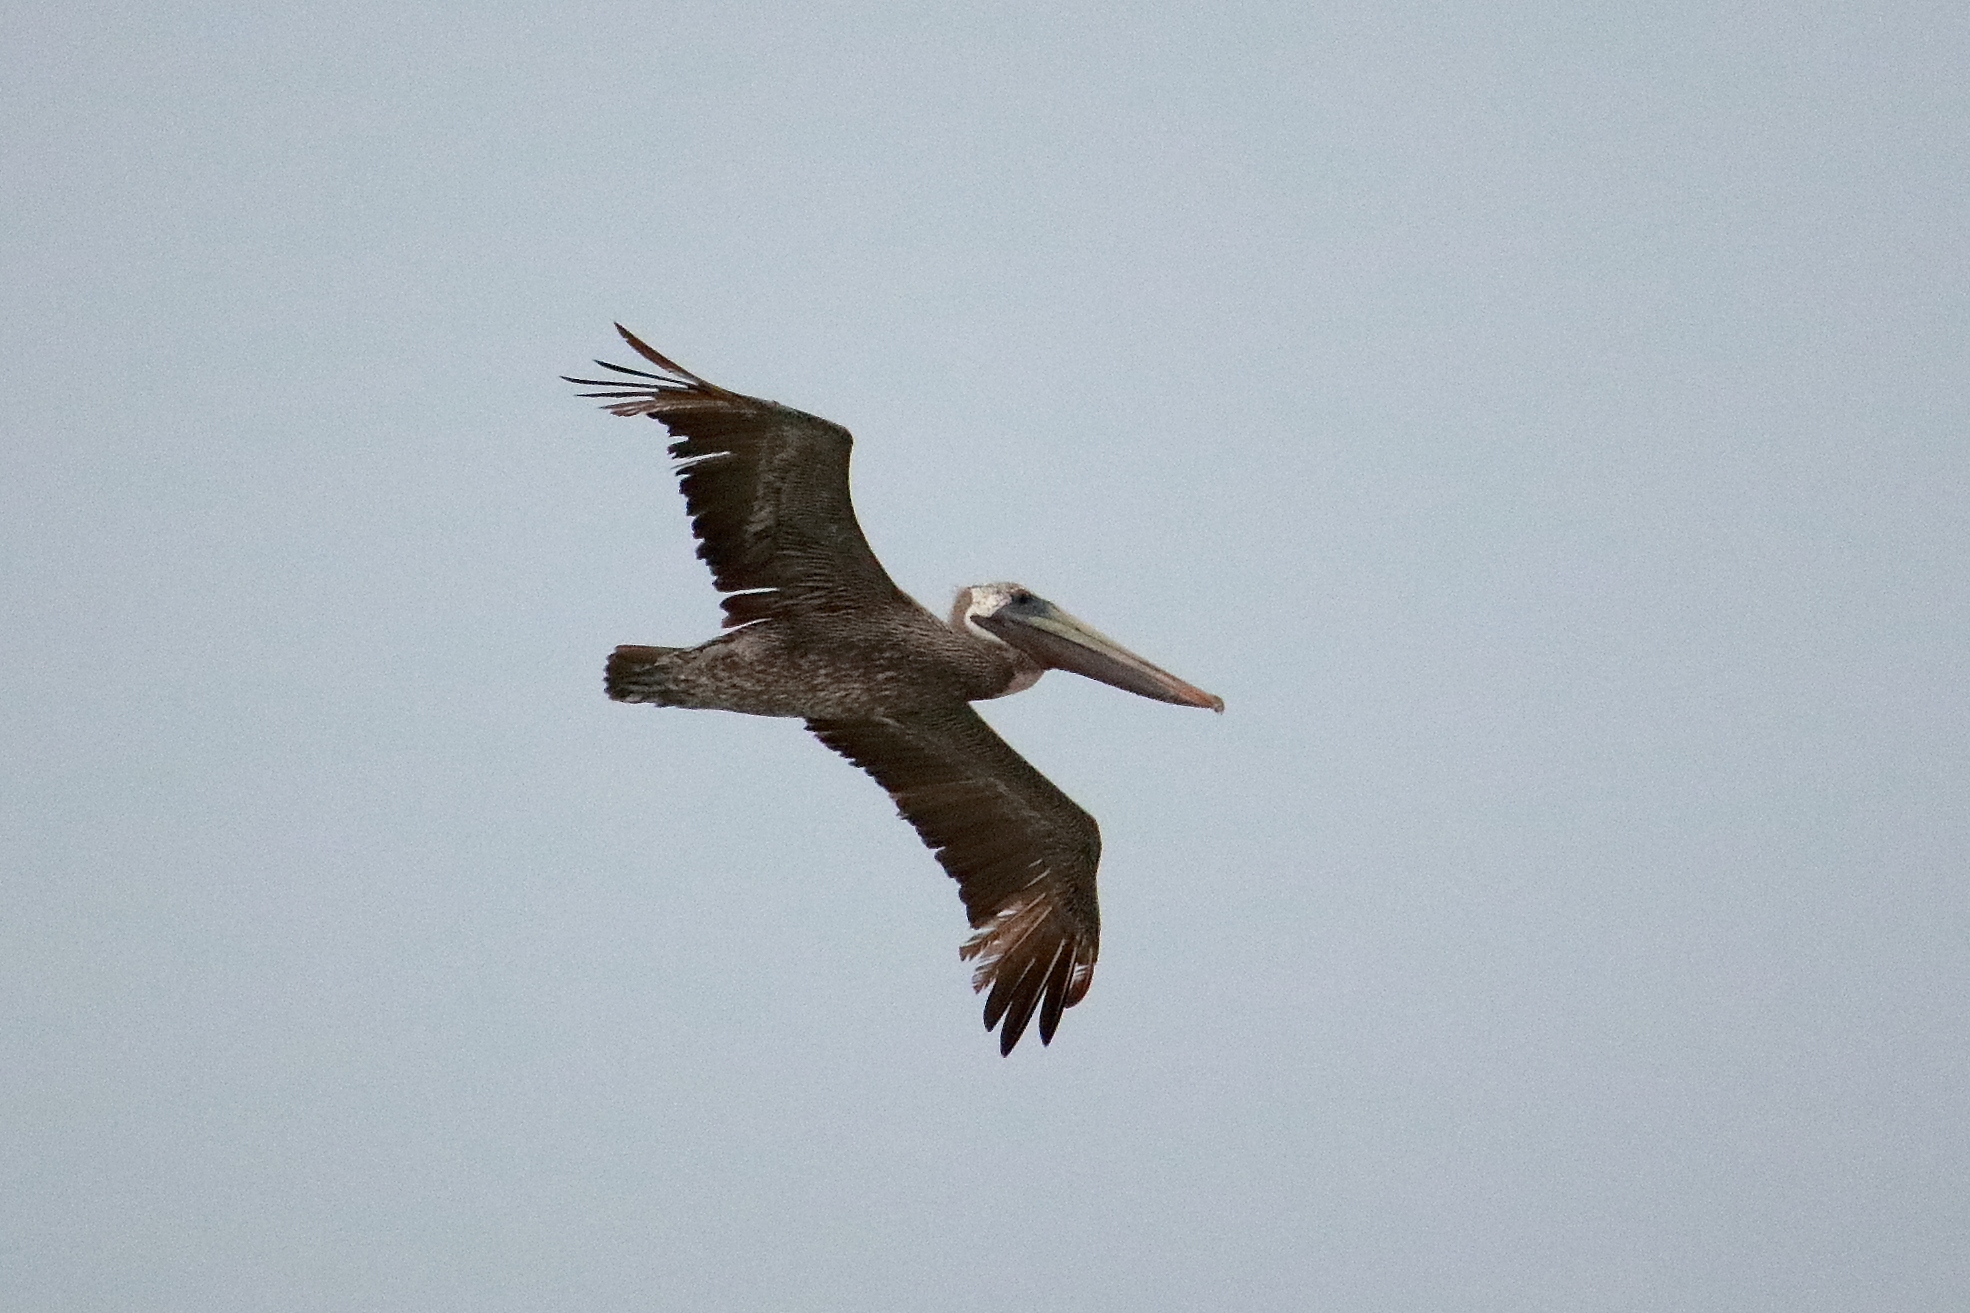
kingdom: Animalia
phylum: Chordata
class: Aves
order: Pelecaniformes
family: Pelecanidae
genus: Pelecanus
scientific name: Pelecanus occidentalis
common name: Brown pelican
